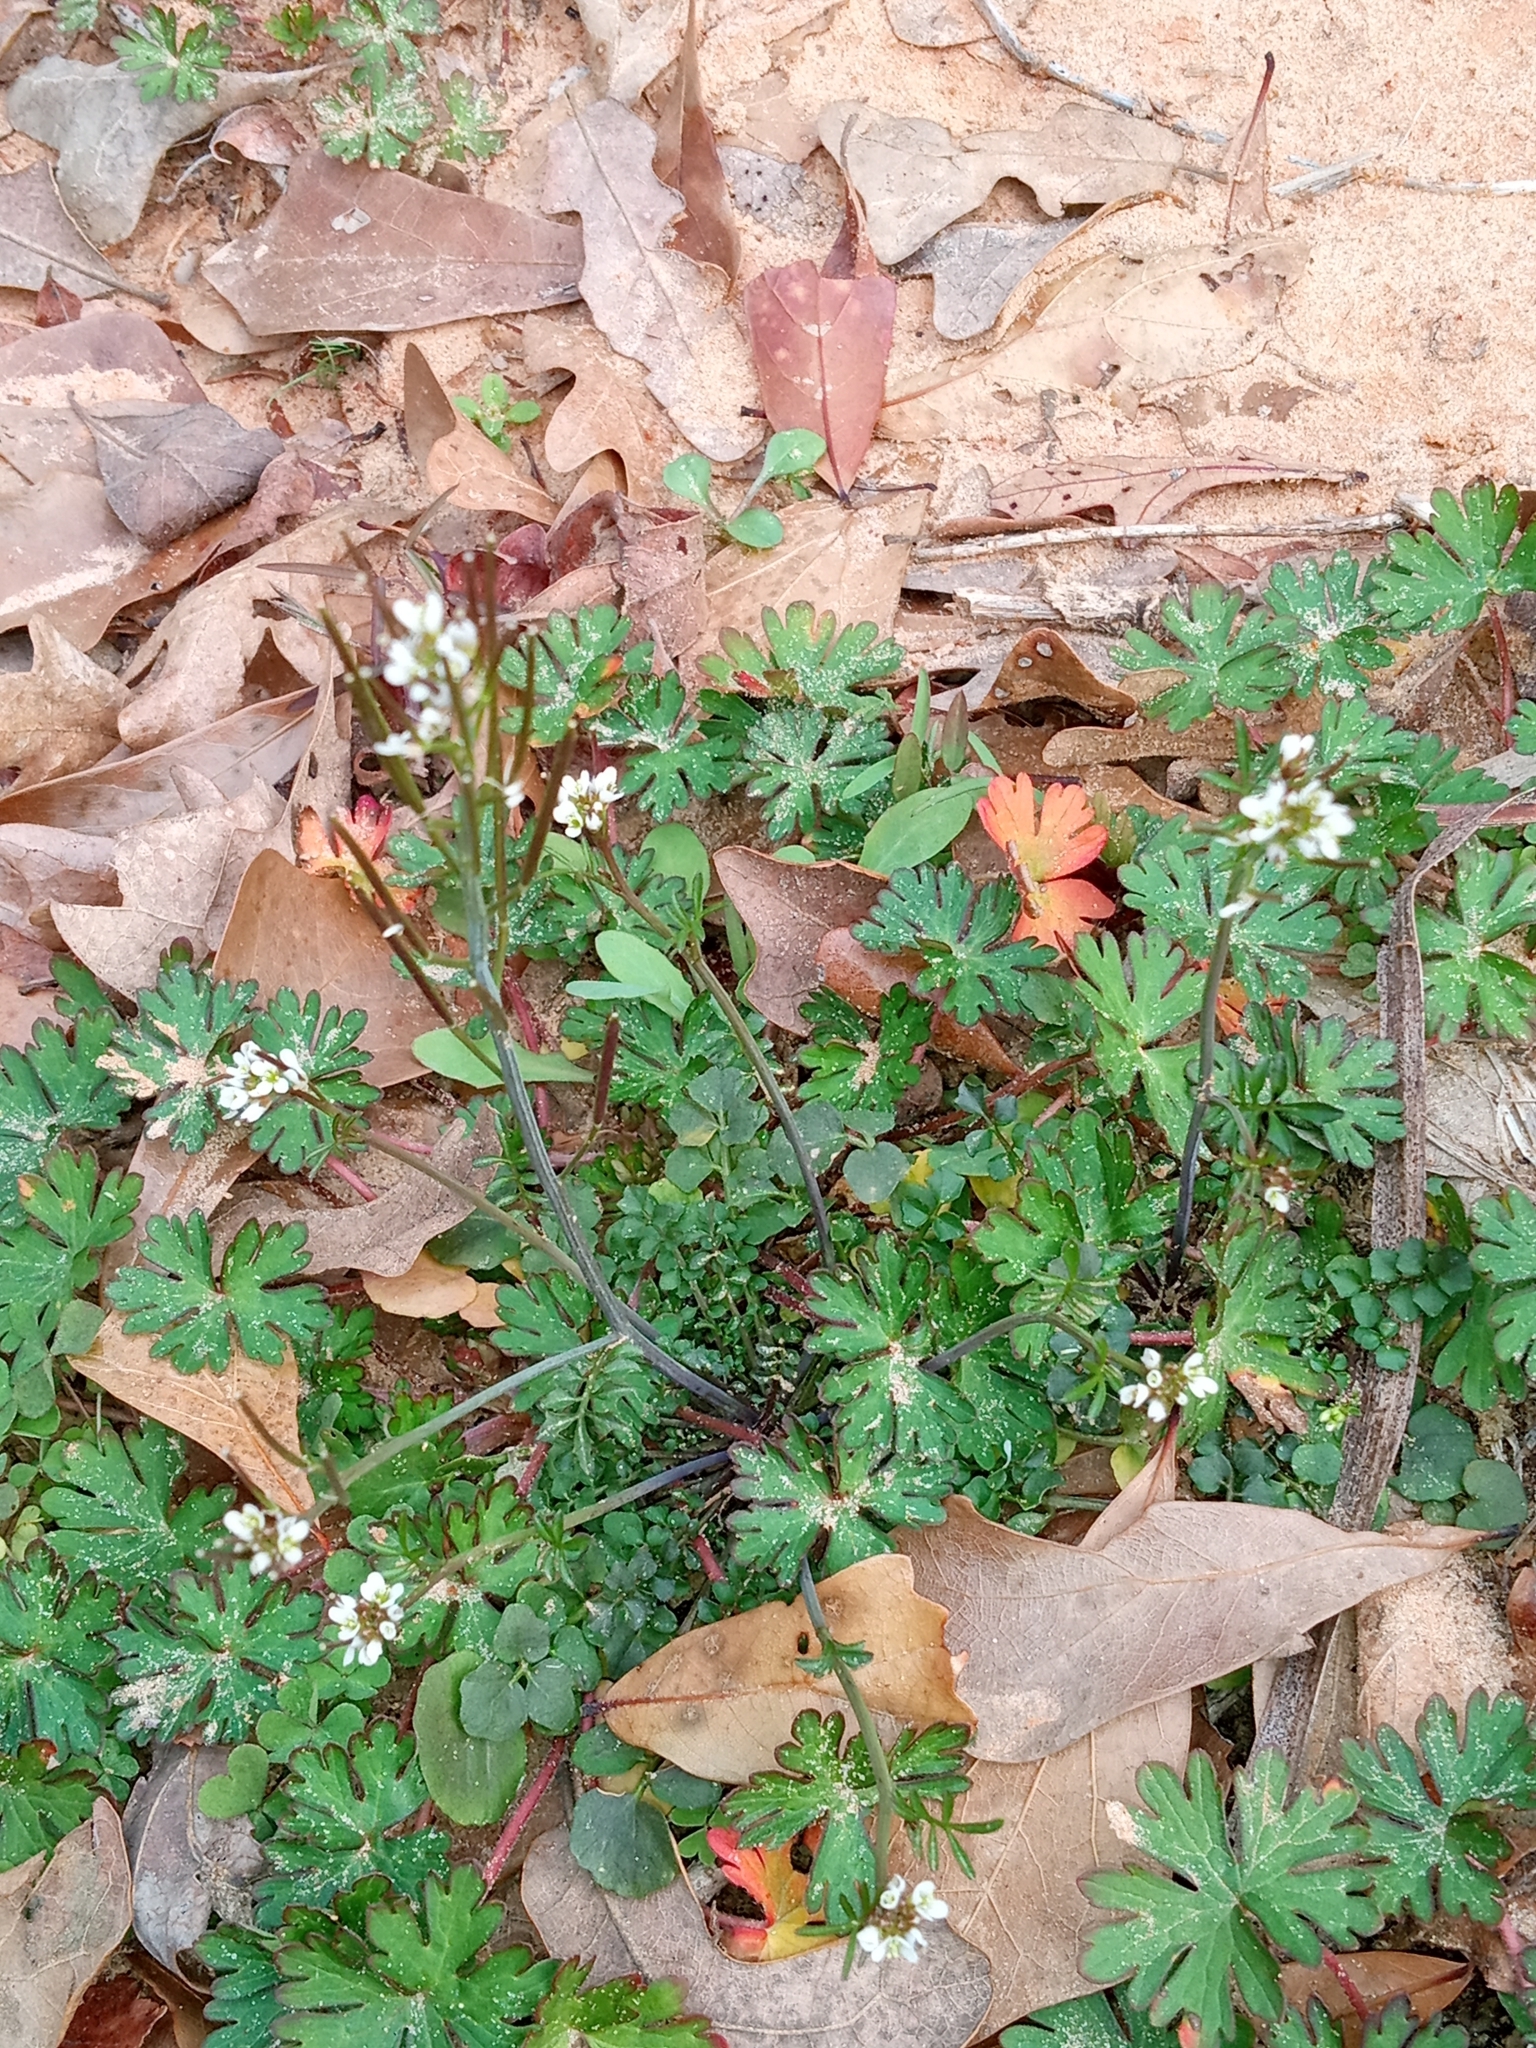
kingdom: Plantae
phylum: Tracheophyta
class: Magnoliopsida
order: Brassicales
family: Brassicaceae
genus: Cardamine
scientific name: Cardamine hirsuta
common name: Hairy bittercress
